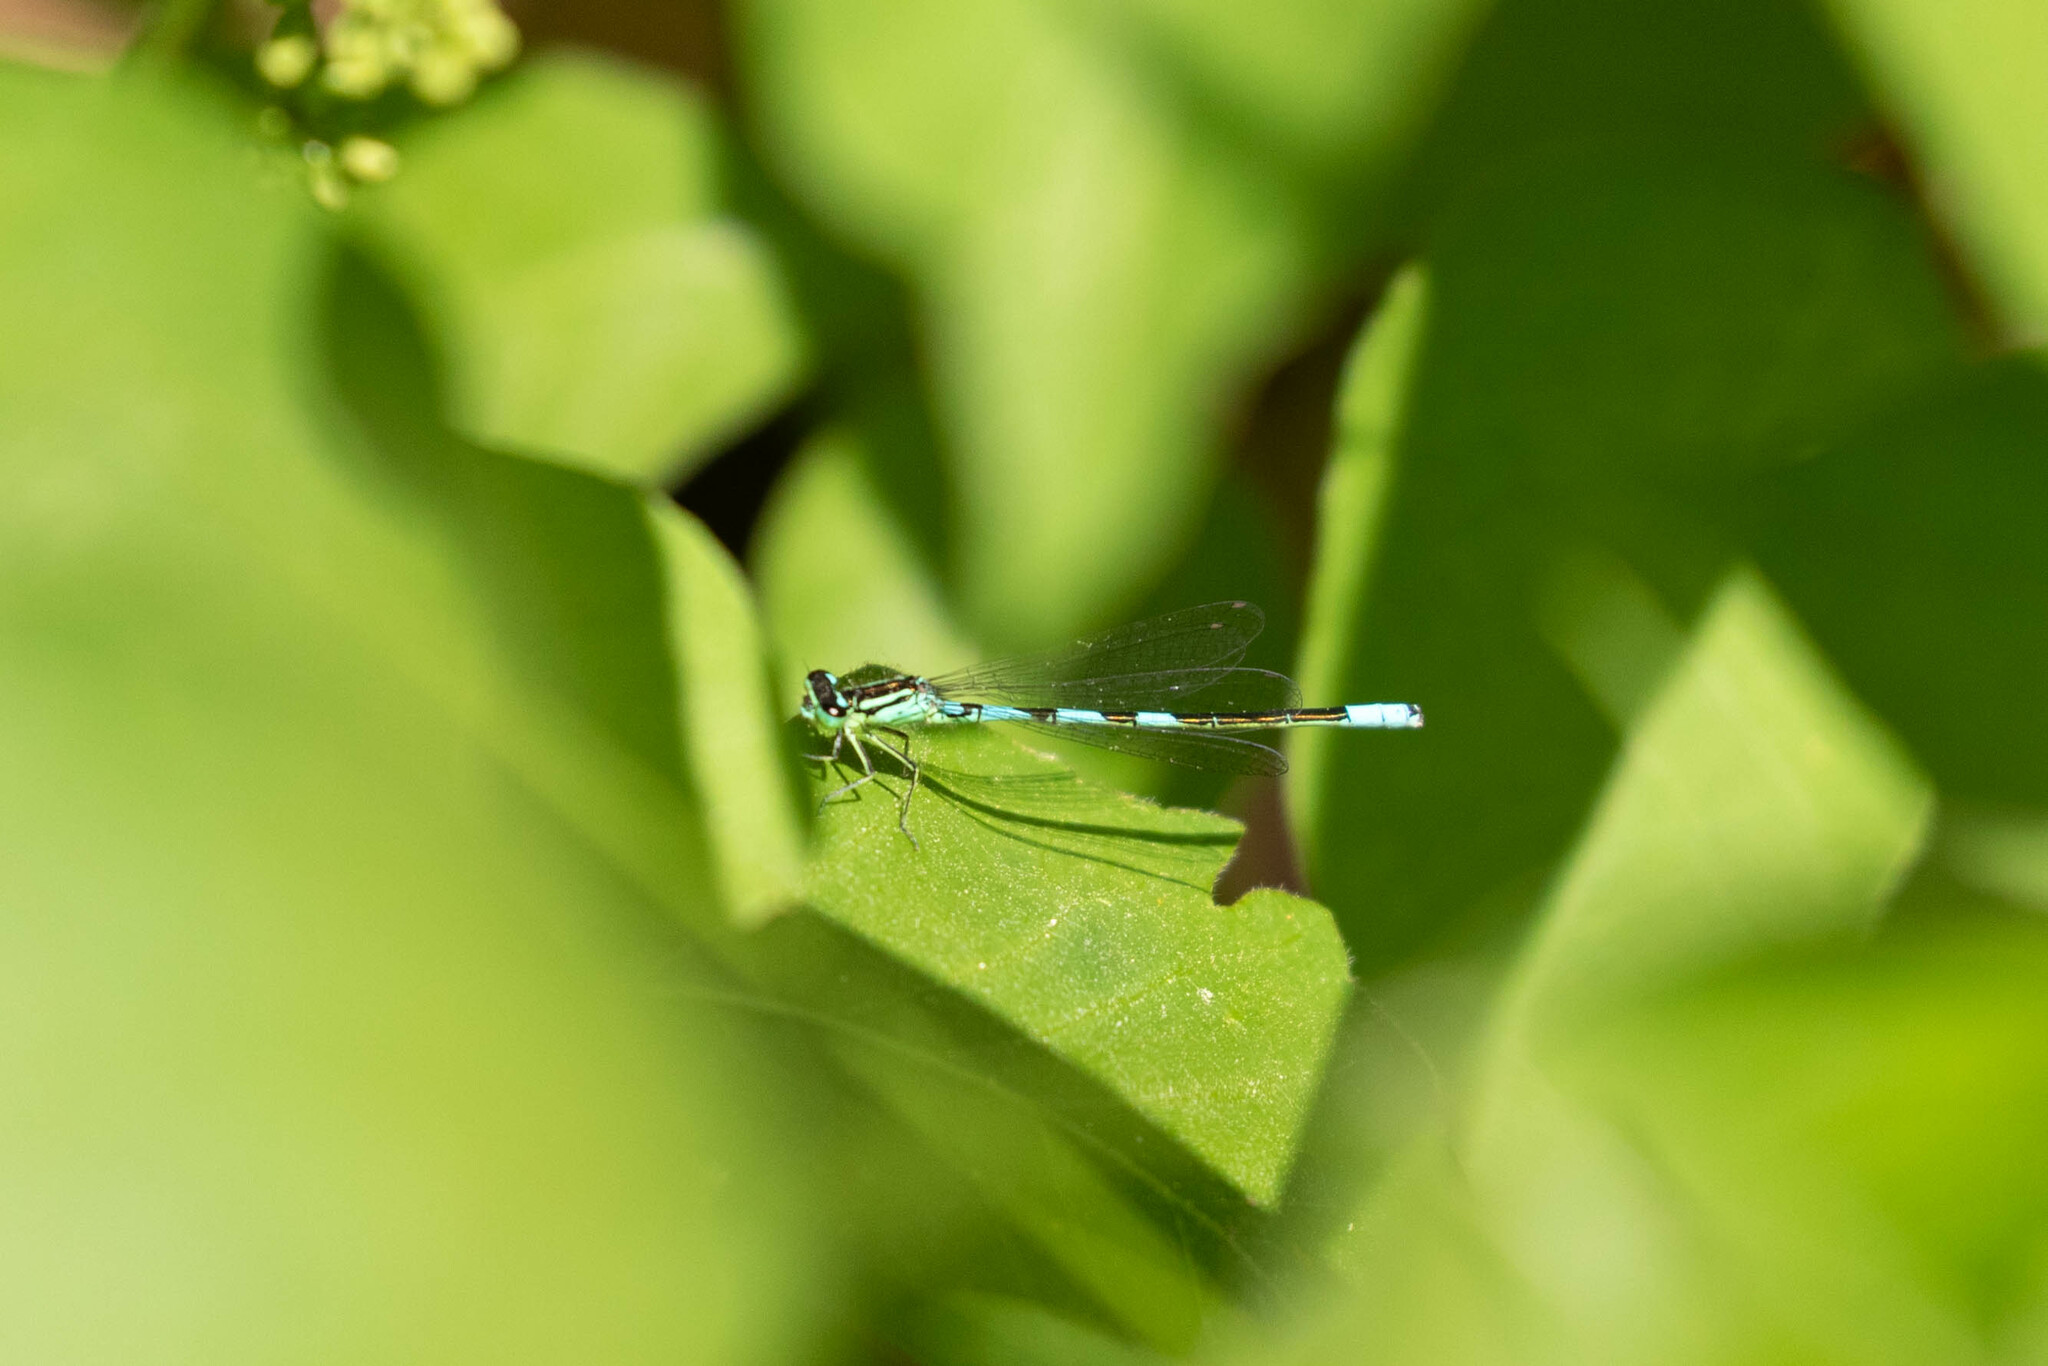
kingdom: Animalia
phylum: Arthropoda
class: Insecta
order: Odonata
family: Coenagrionidae
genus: Coenagrion
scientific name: Coenagrion resolutum
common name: Taiga bluet
